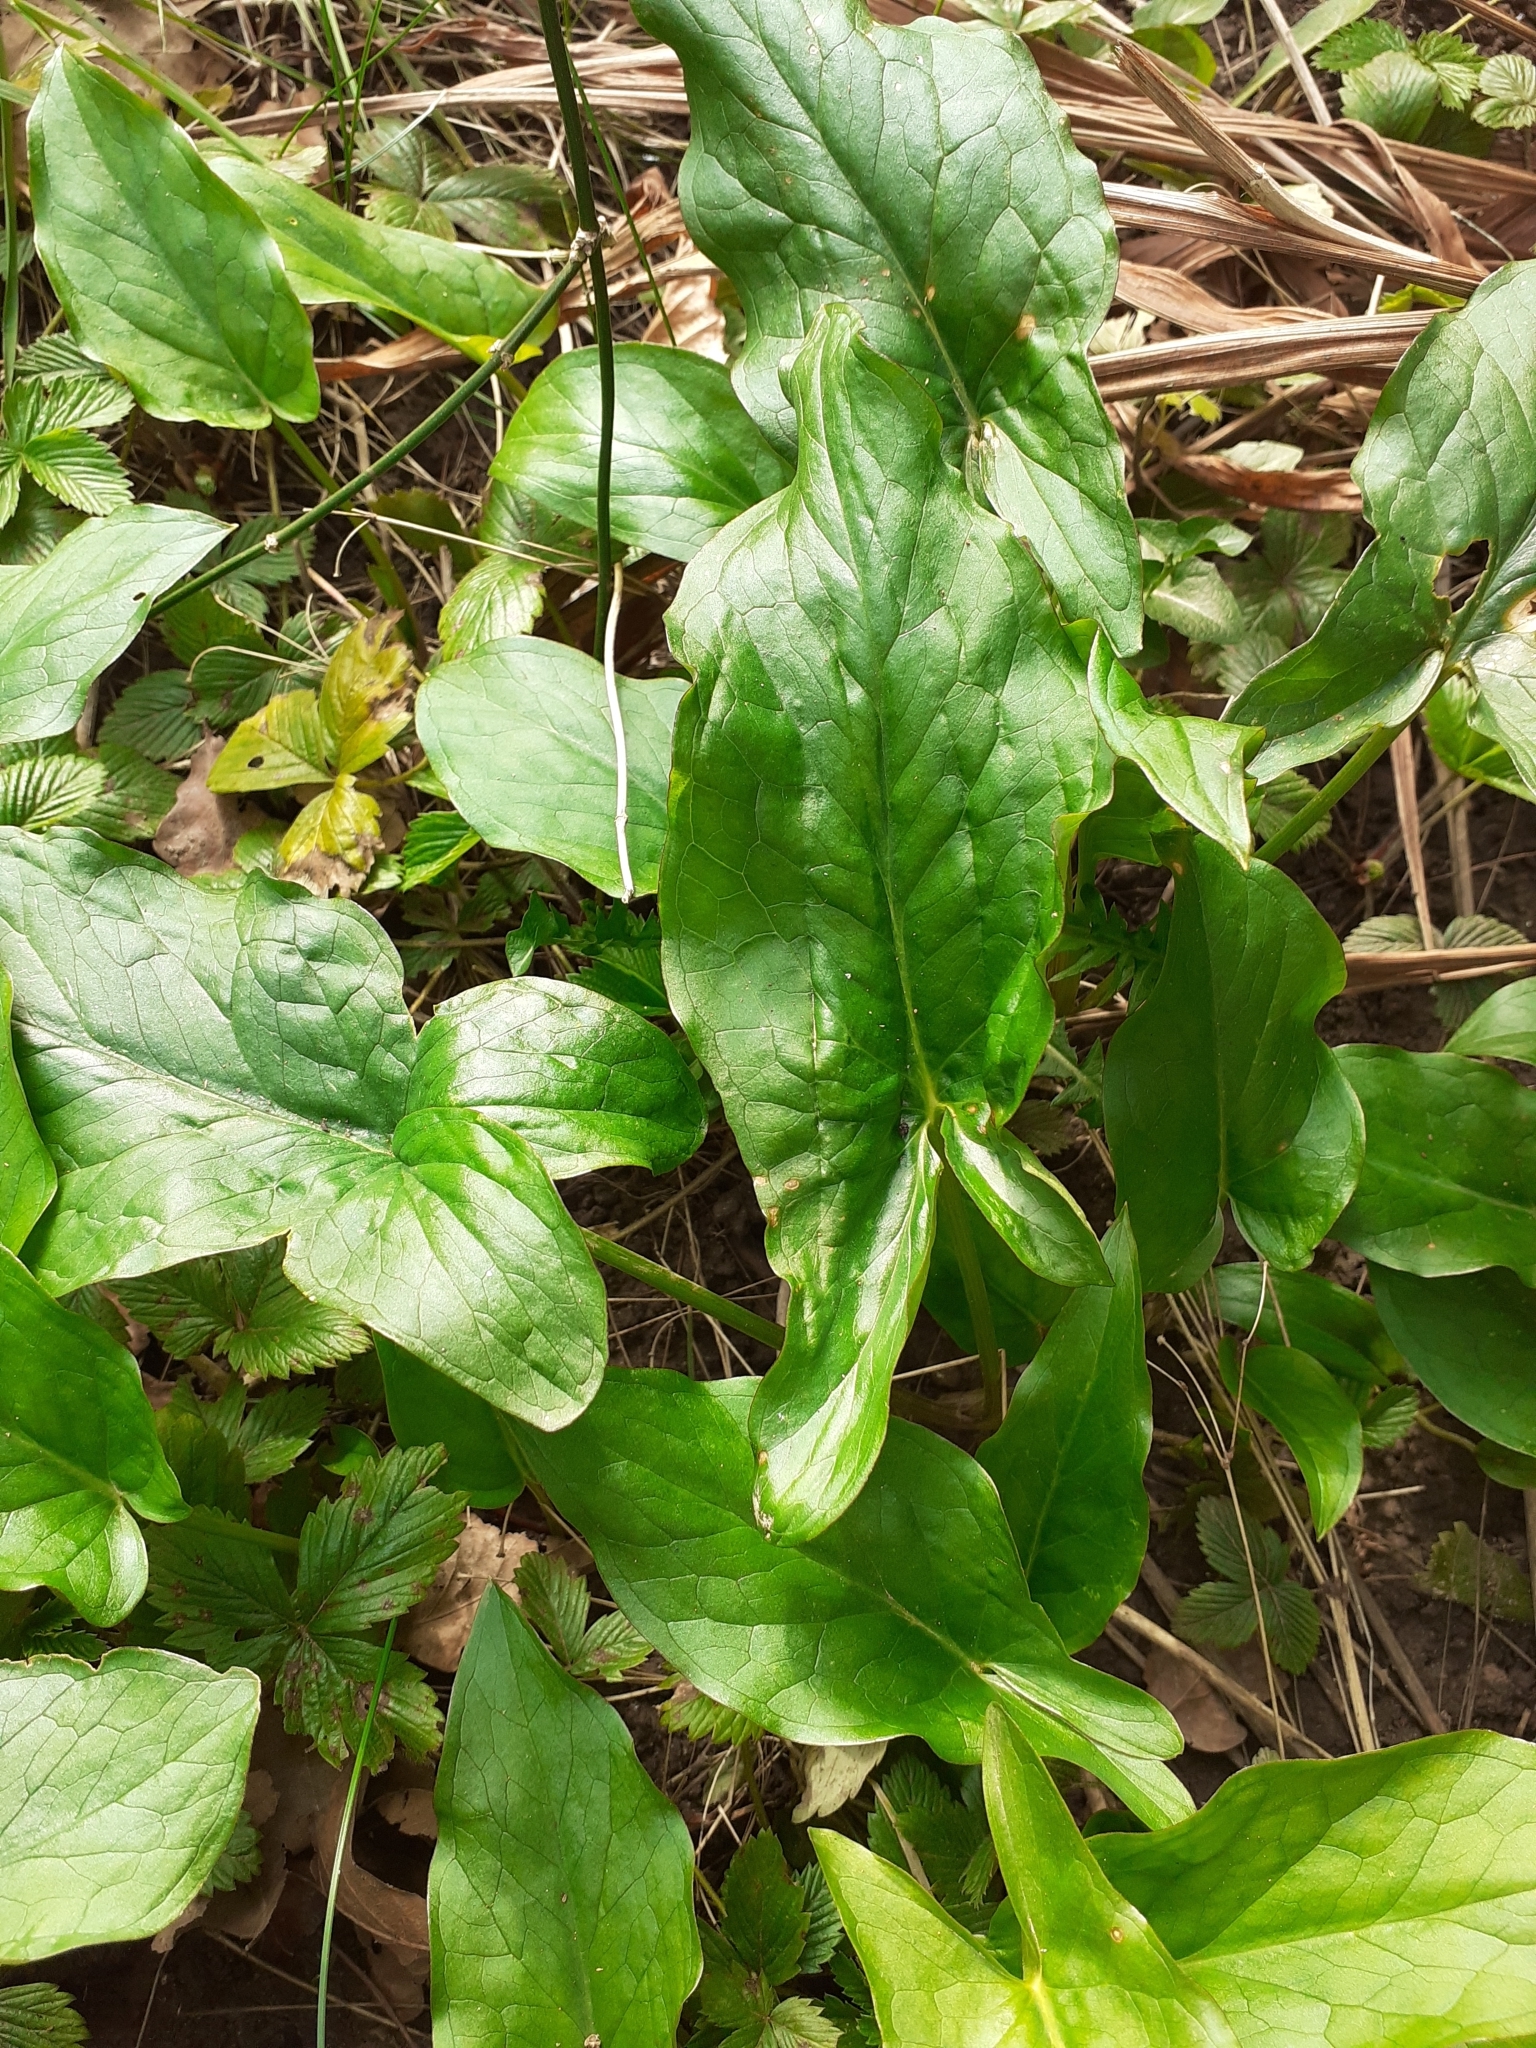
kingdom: Plantae
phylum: Tracheophyta
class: Liliopsida
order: Alismatales
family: Araceae
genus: Arum
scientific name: Arum maculatum
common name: Lords-and-ladies
